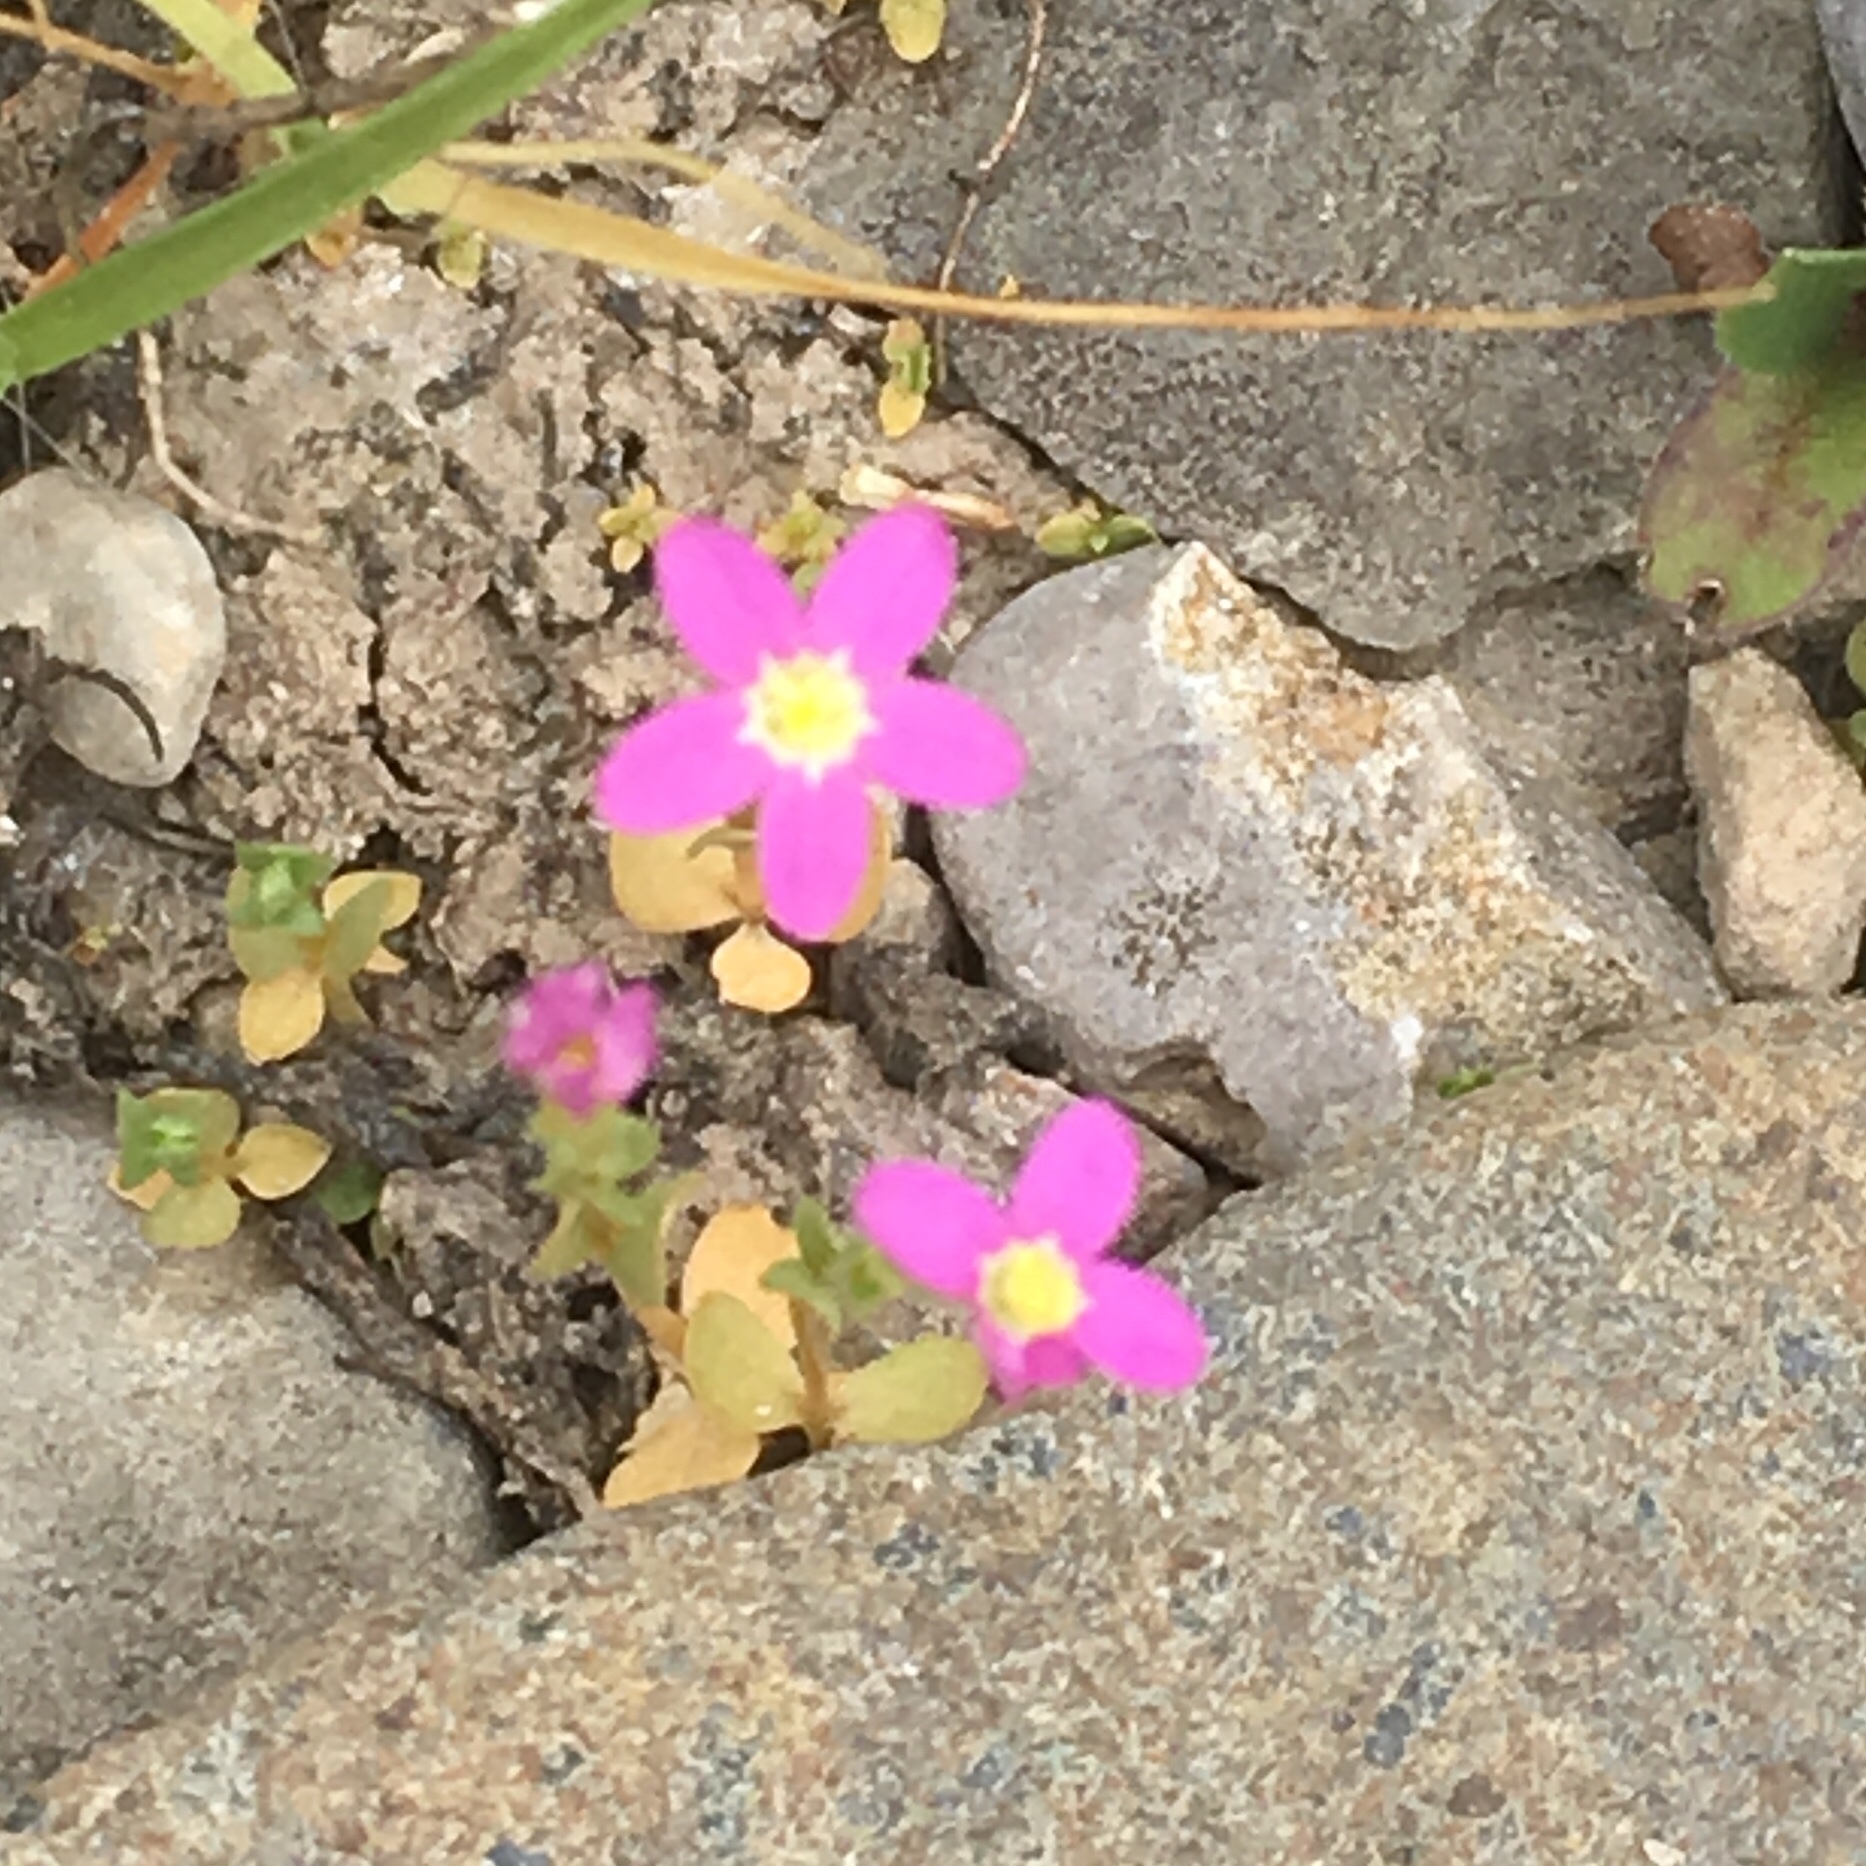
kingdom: Plantae
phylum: Tracheophyta
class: Magnoliopsida
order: Gentianales
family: Gentianaceae
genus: Centaurium
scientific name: Centaurium pulchellum
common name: Lesser centaury
